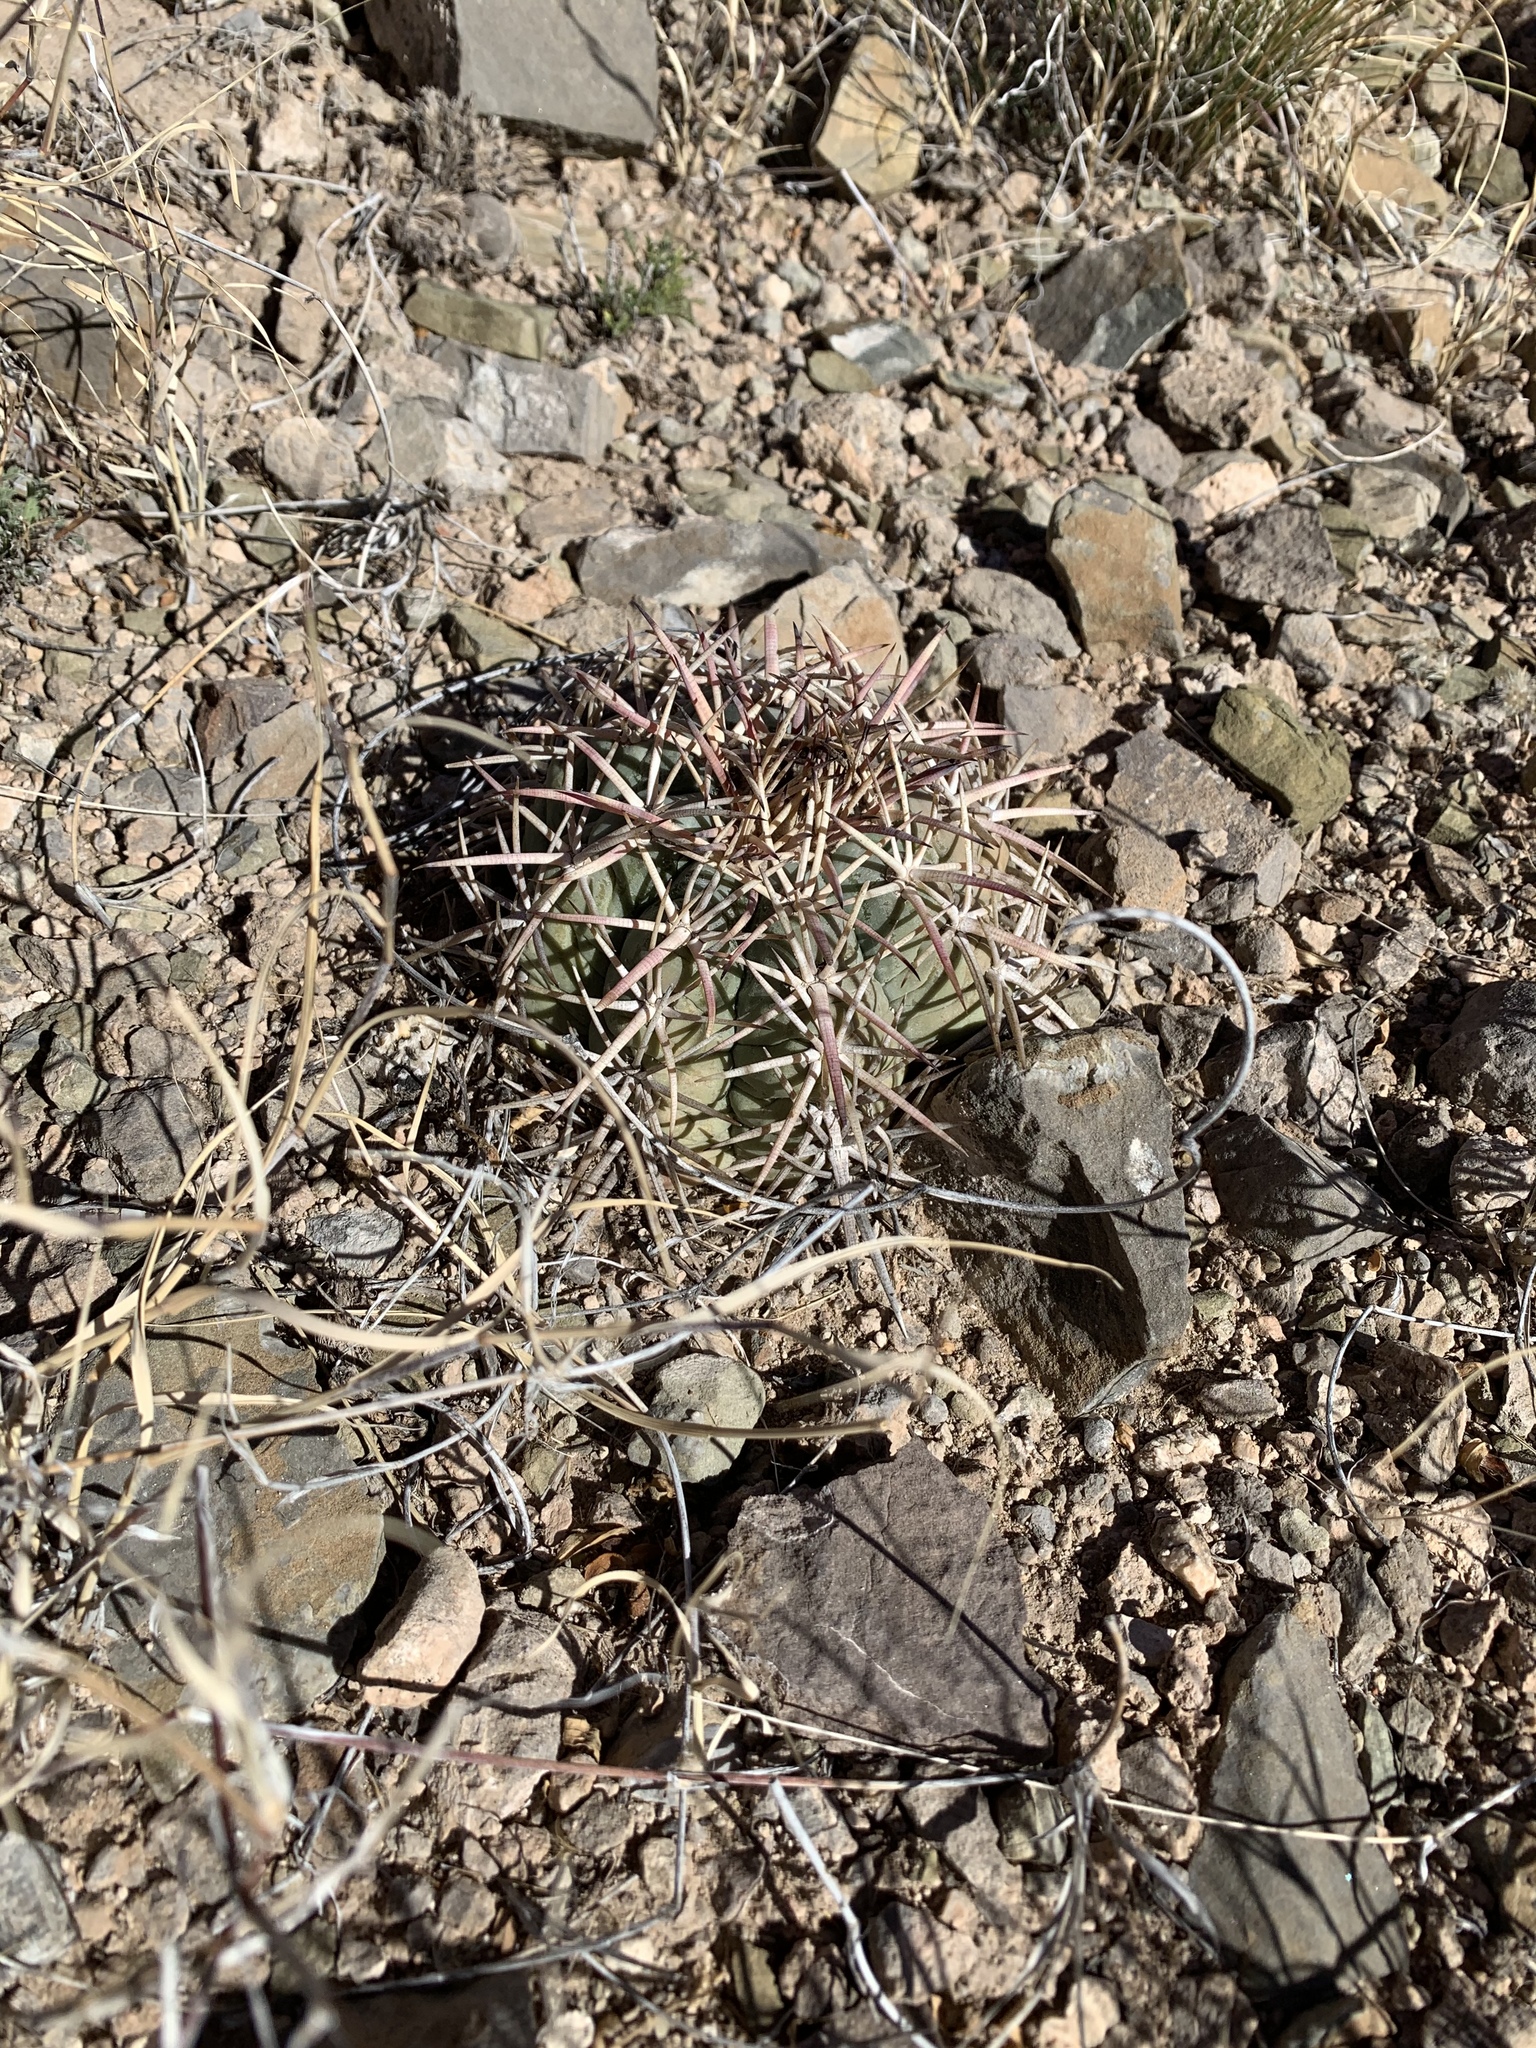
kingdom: Plantae
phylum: Tracheophyta
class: Magnoliopsida
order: Caryophyllales
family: Cactaceae
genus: Echinocactus
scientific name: Echinocactus horizonthalonius
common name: Devilshead
